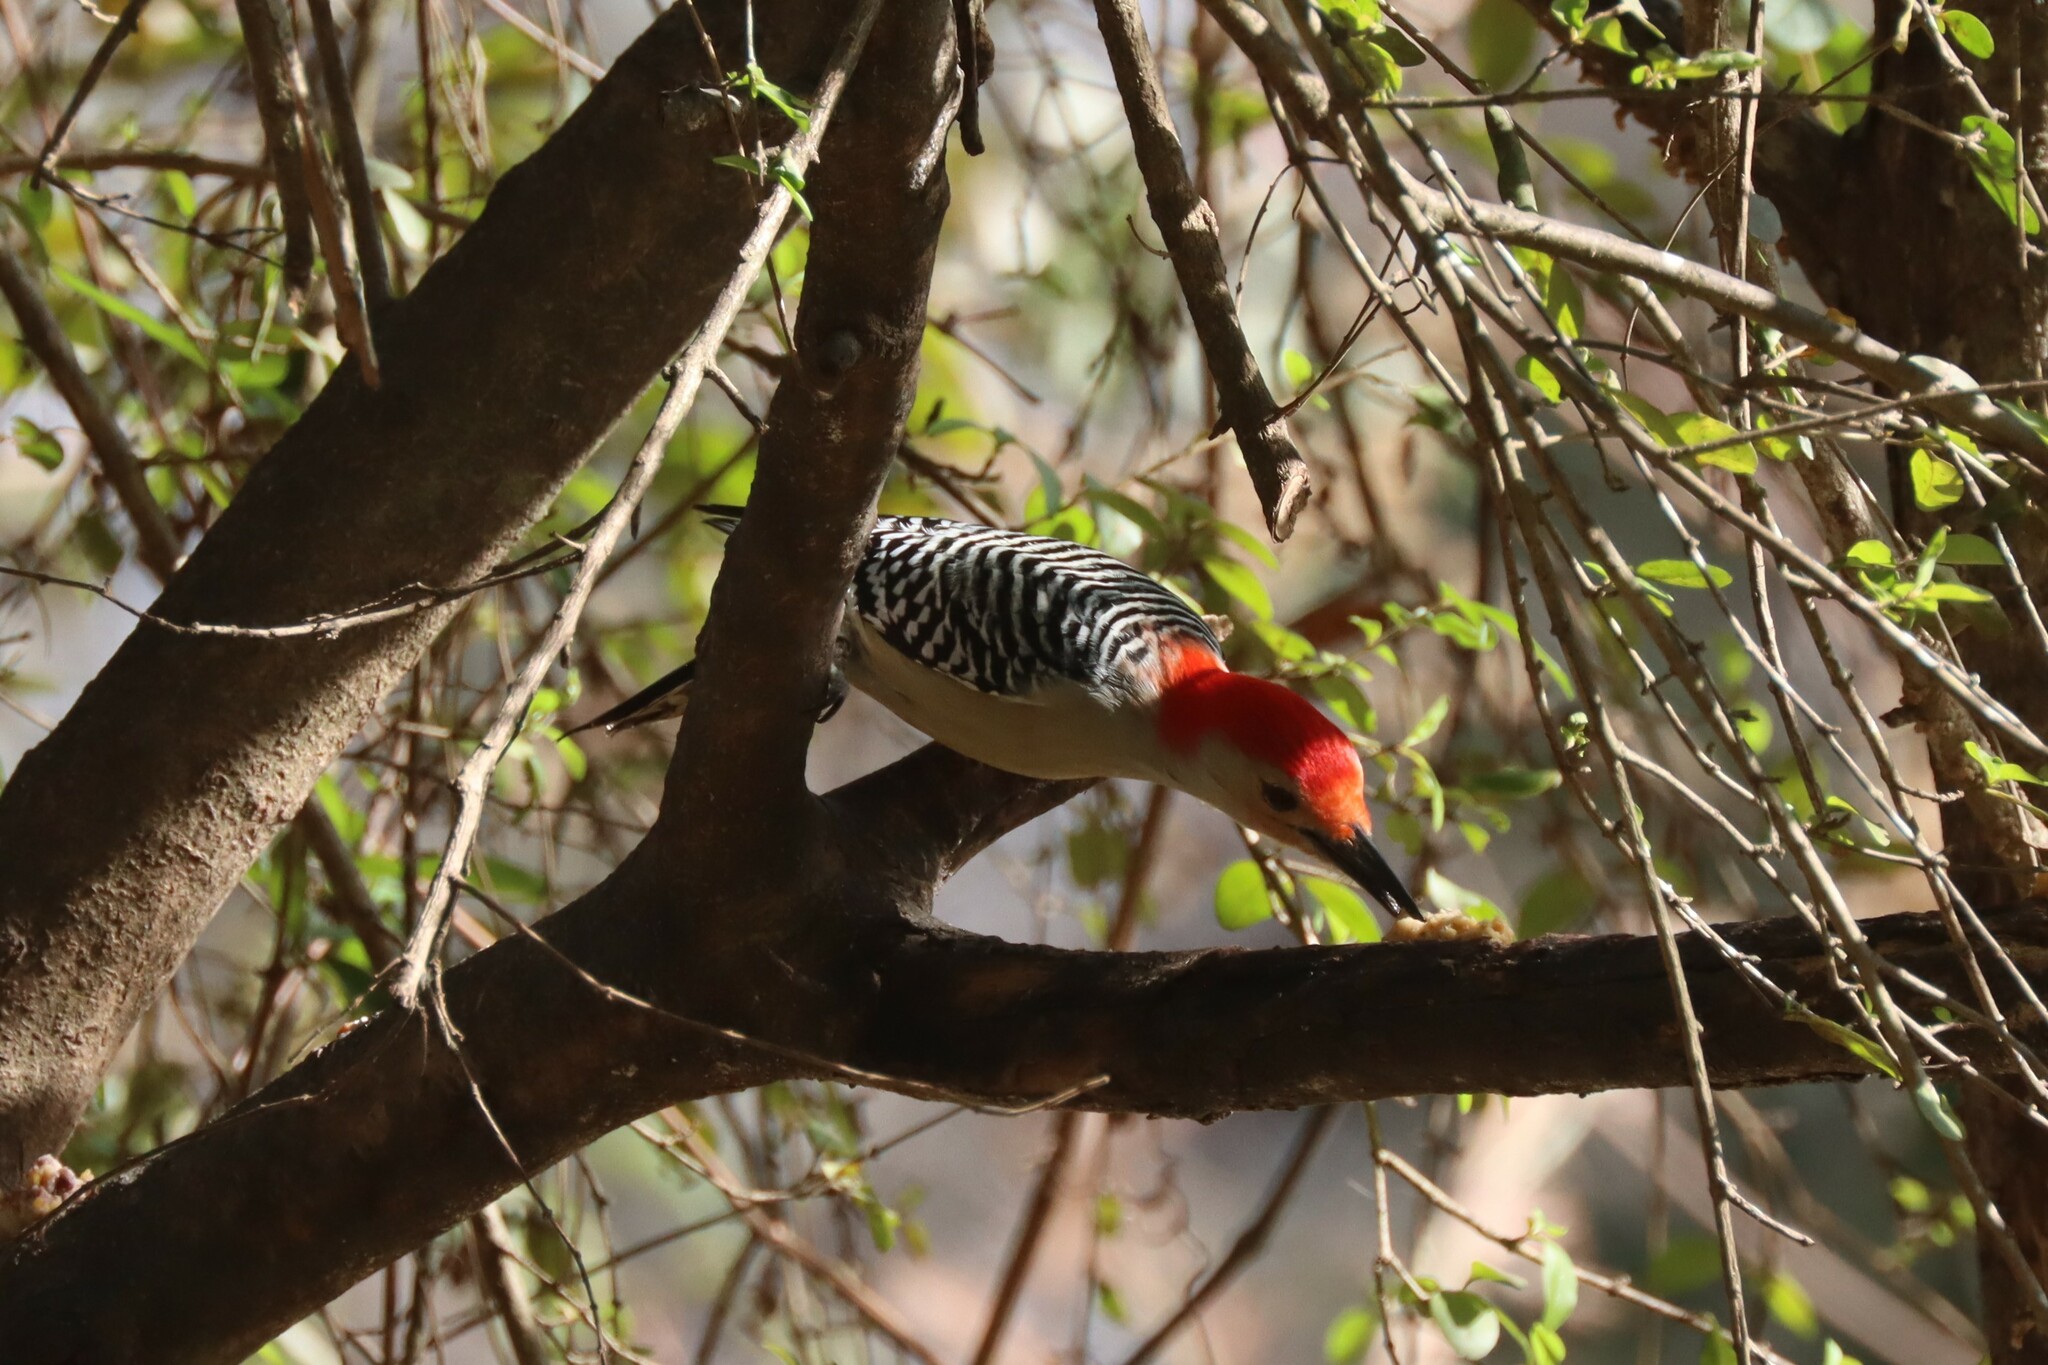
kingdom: Animalia
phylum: Chordata
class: Aves
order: Piciformes
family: Picidae
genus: Melanerpes
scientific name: Melanerpes carolinus
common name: Red-bellied woodpecker
